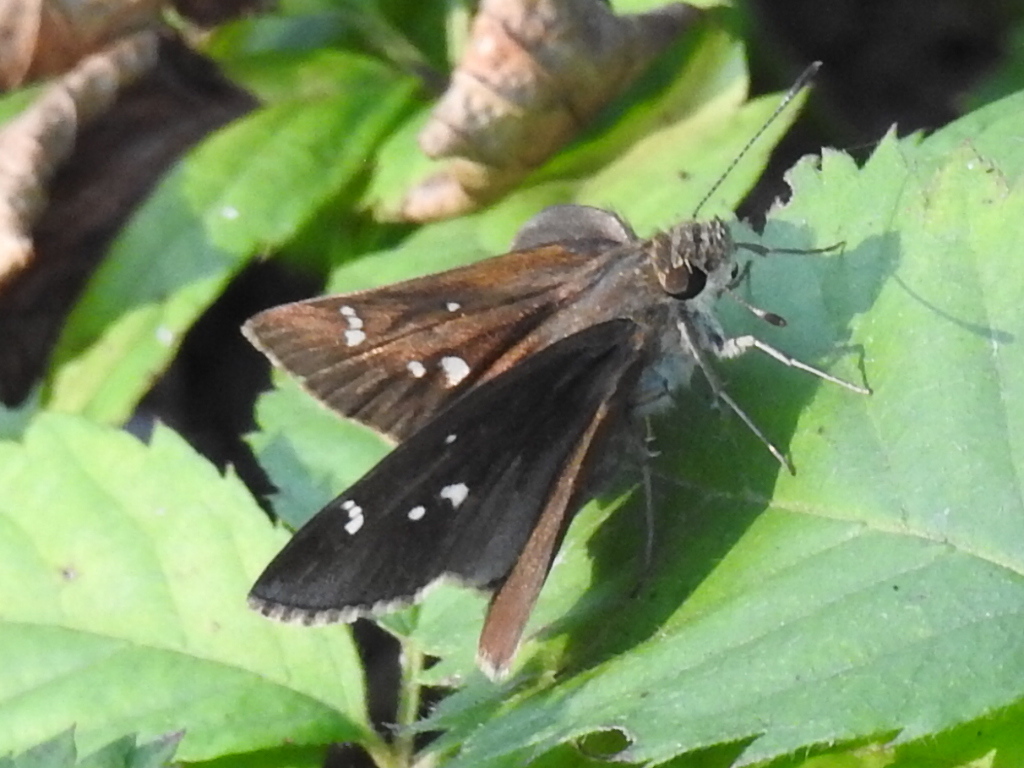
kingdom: Animalia
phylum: Arthropoda
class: Insecta
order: Lepidoptera
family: Hesperiidae
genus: Lerema
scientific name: Lerema accius
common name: Clouded skipper
